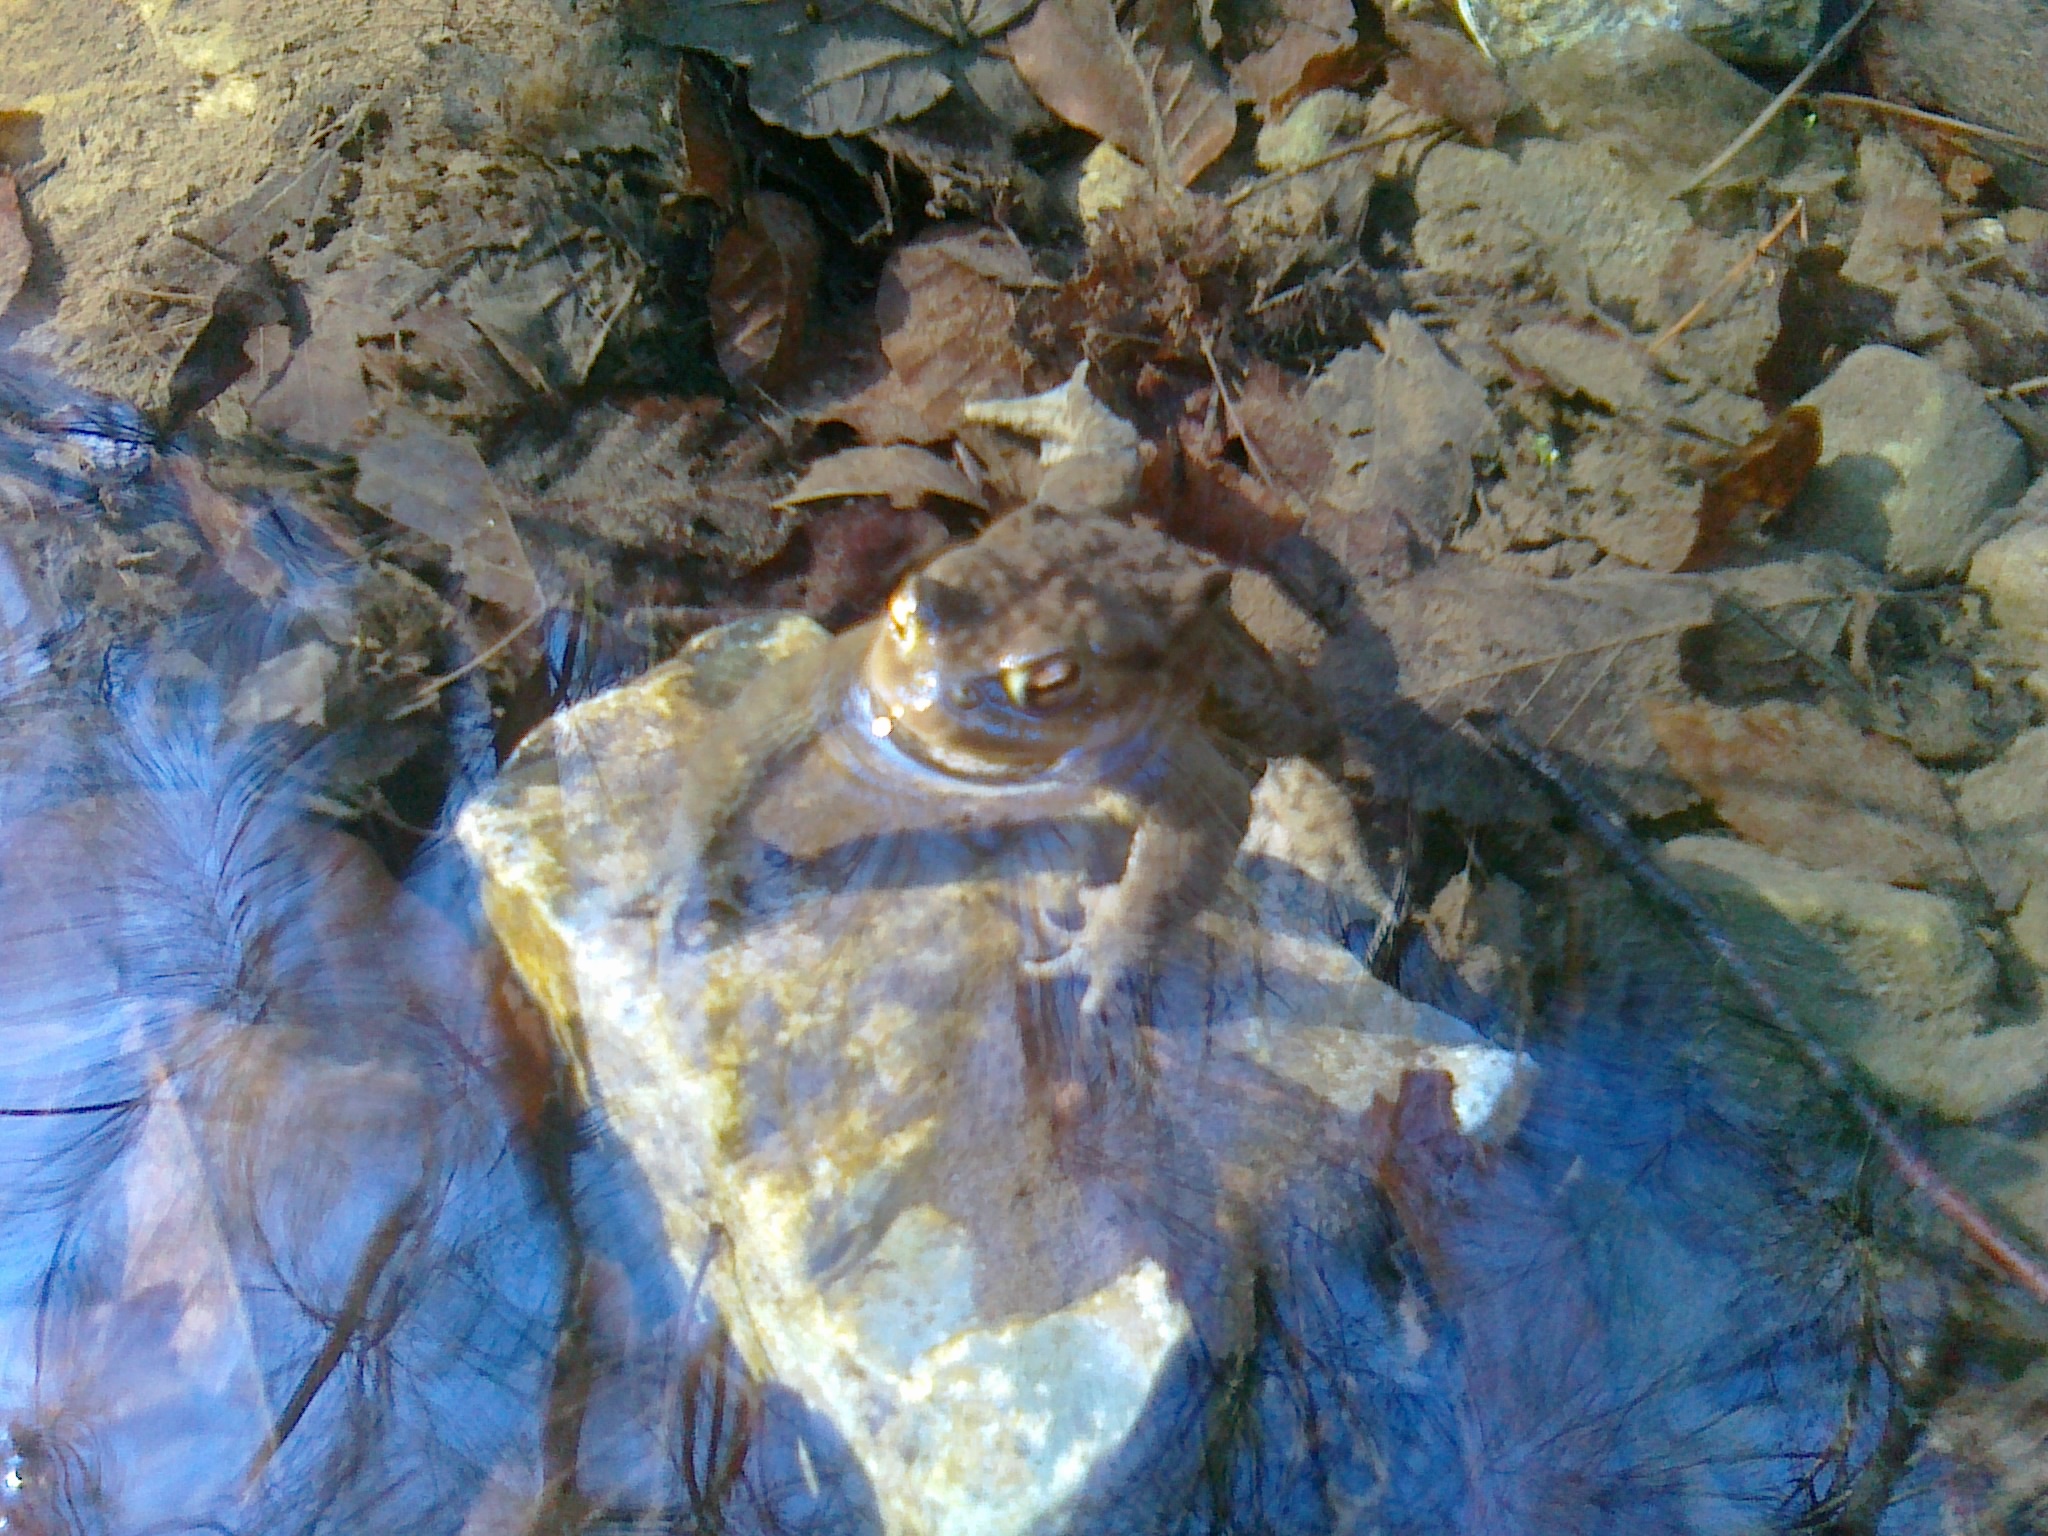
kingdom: Animalia
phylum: Chordata
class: Amphibia
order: Anura
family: Bufonidae
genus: Bufo
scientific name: Bufo bufo
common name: Common toad
